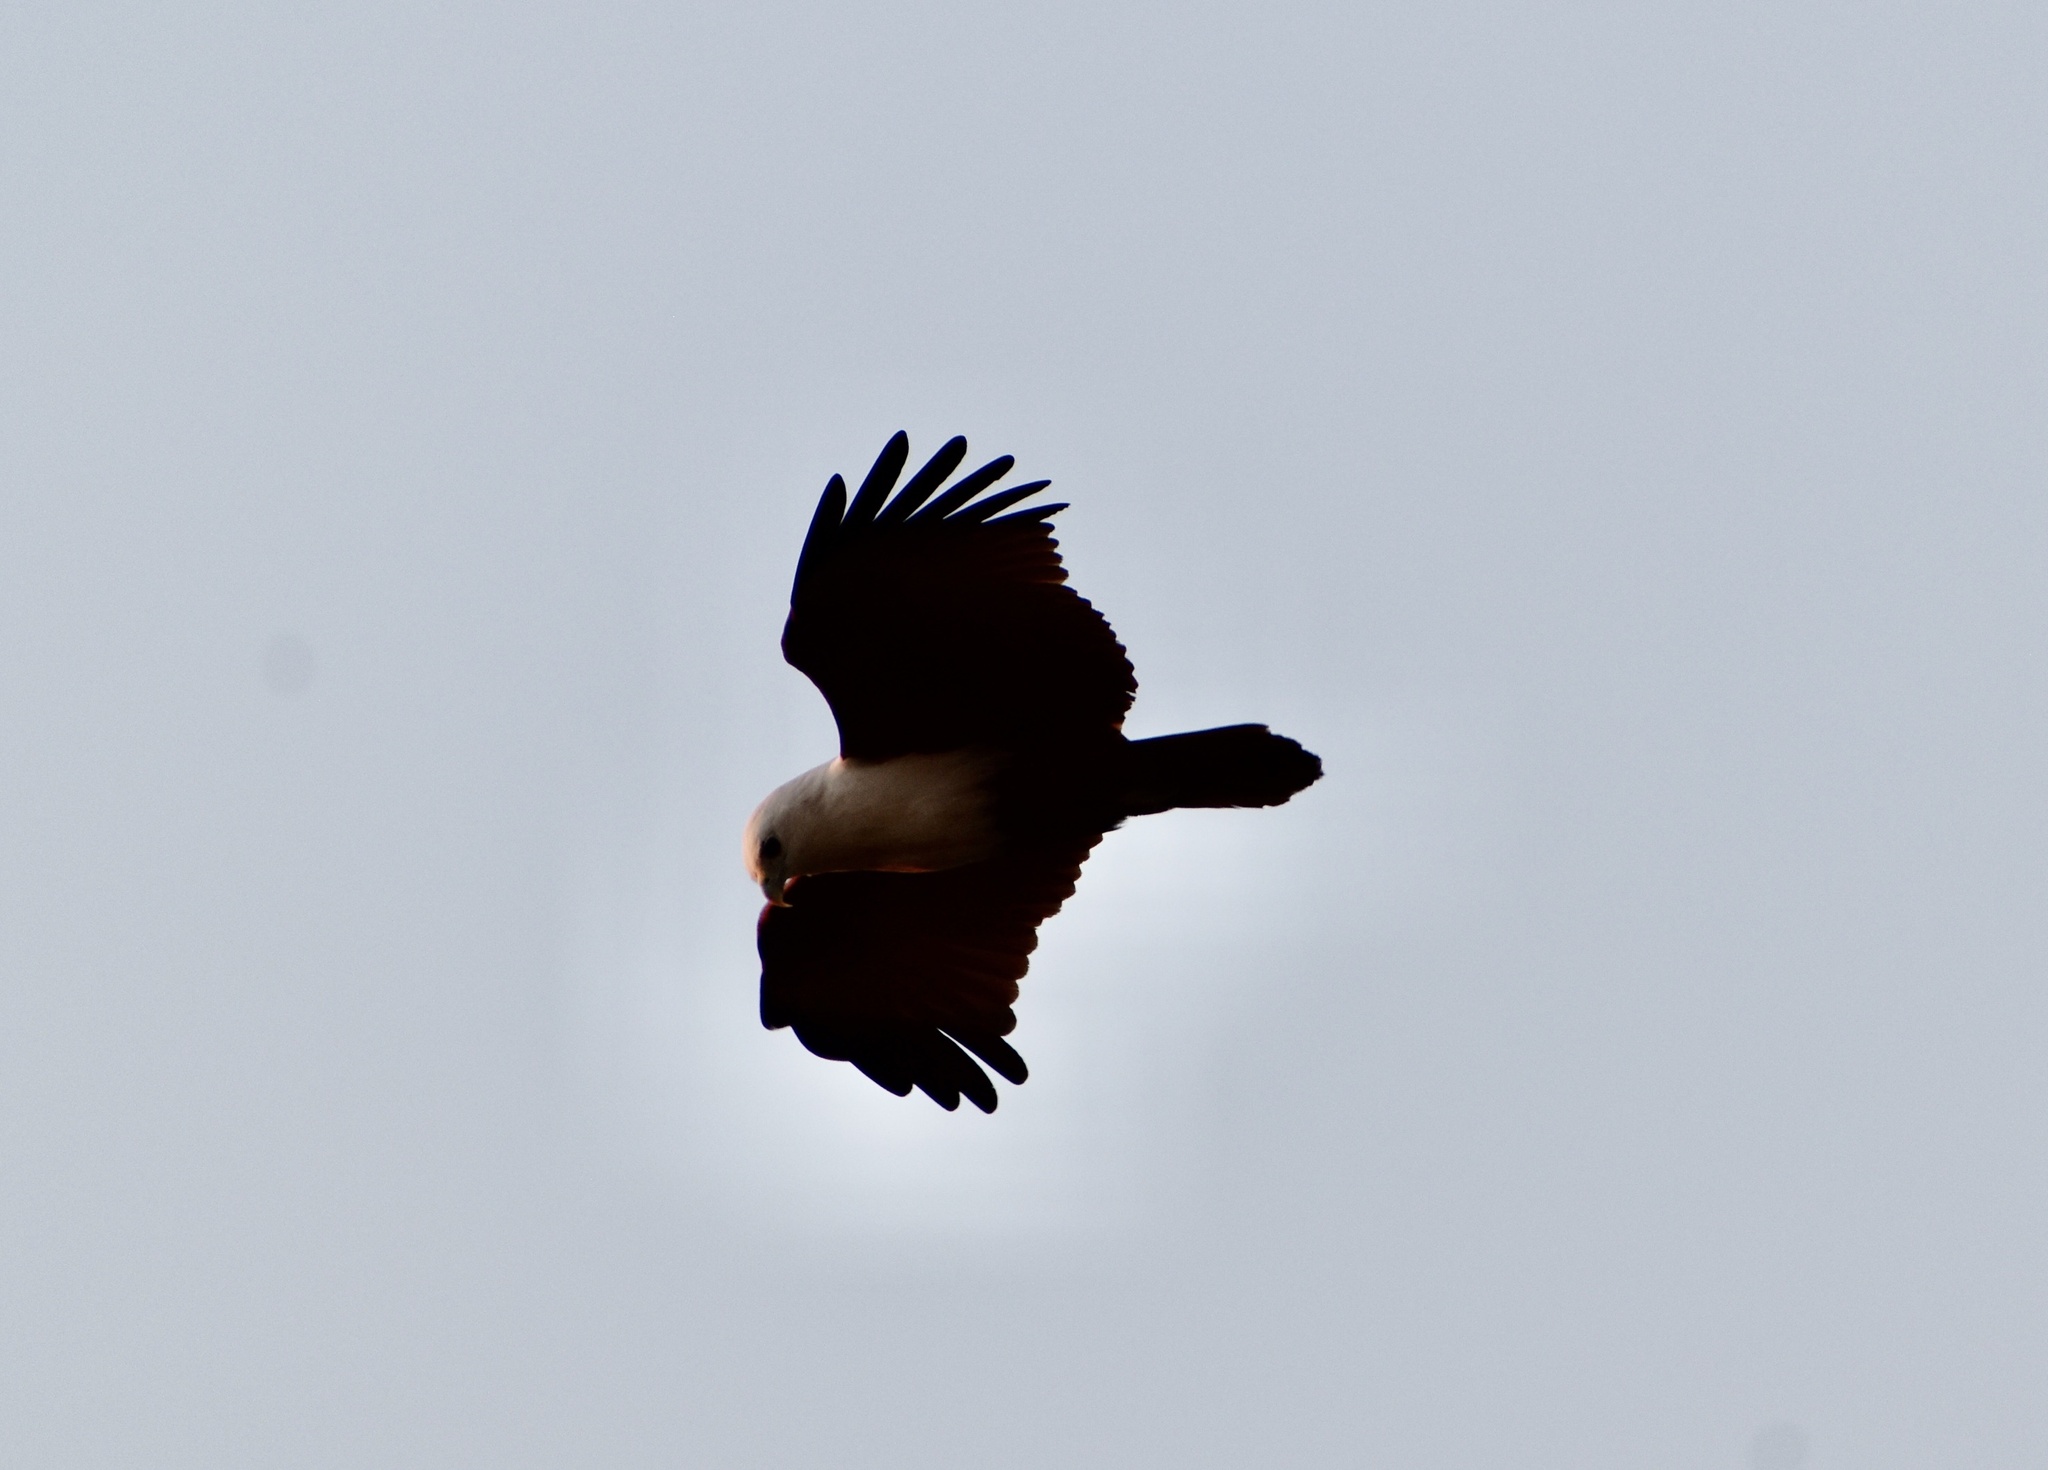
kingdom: Animalia
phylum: Chordata
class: Aves
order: Accipitriformes
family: Accipitridae
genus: Haliastur
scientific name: Haliastur indus
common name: Brahminy kite
